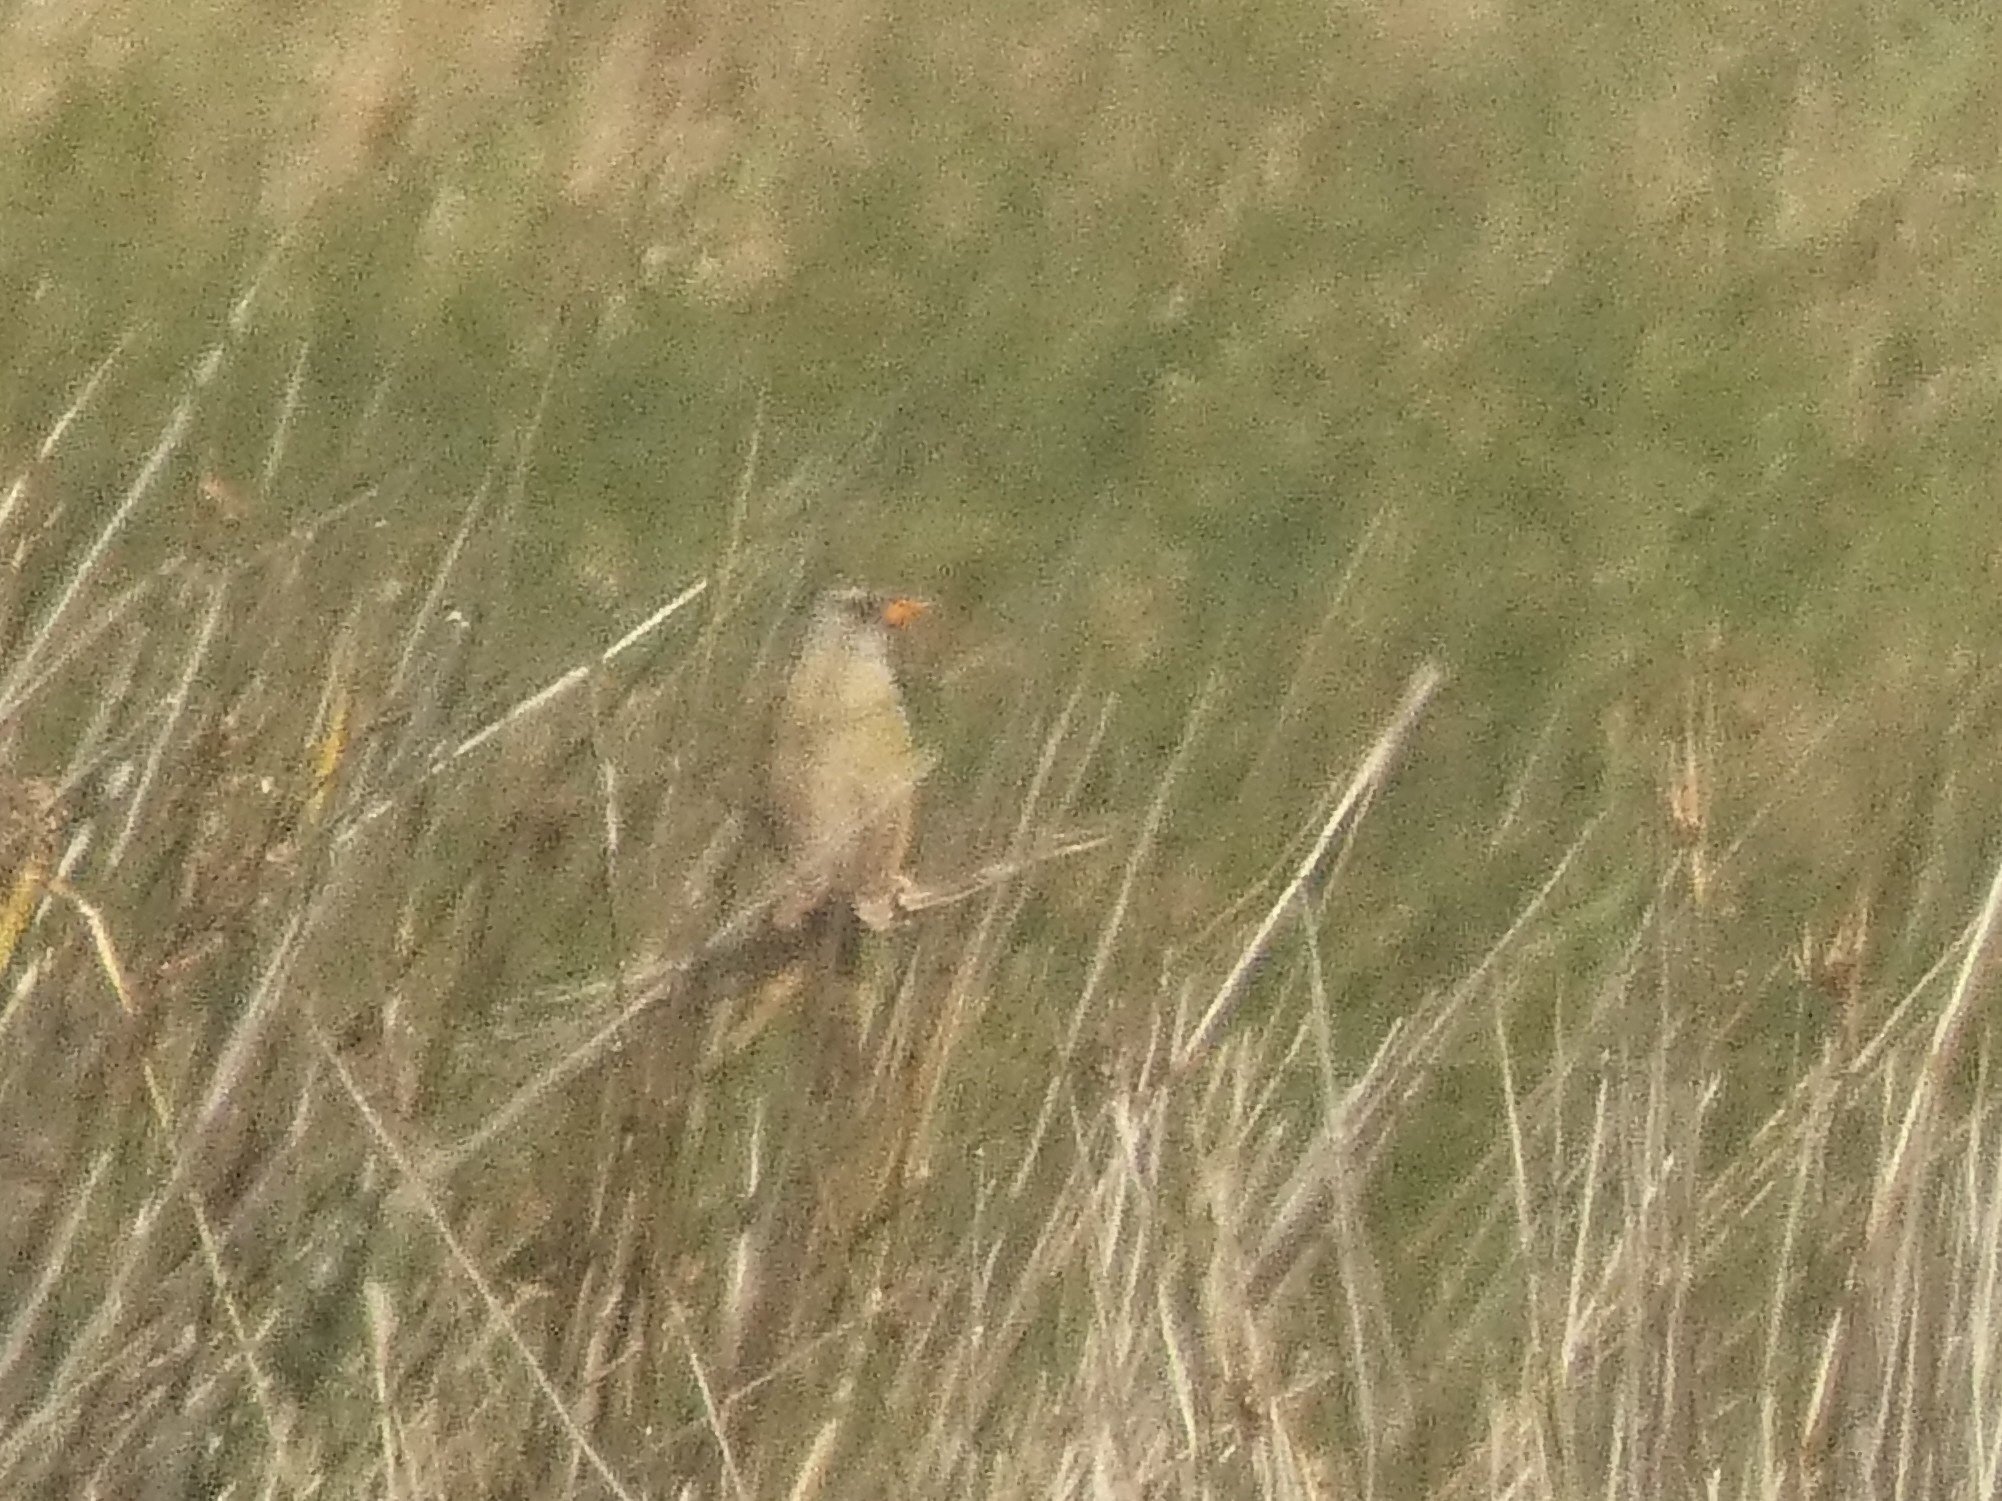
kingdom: Animalia
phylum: Chordata
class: Aves
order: Passeriformes
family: Thraupidae
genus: Embernagra
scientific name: Embernagra platensis
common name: Pampa finch
